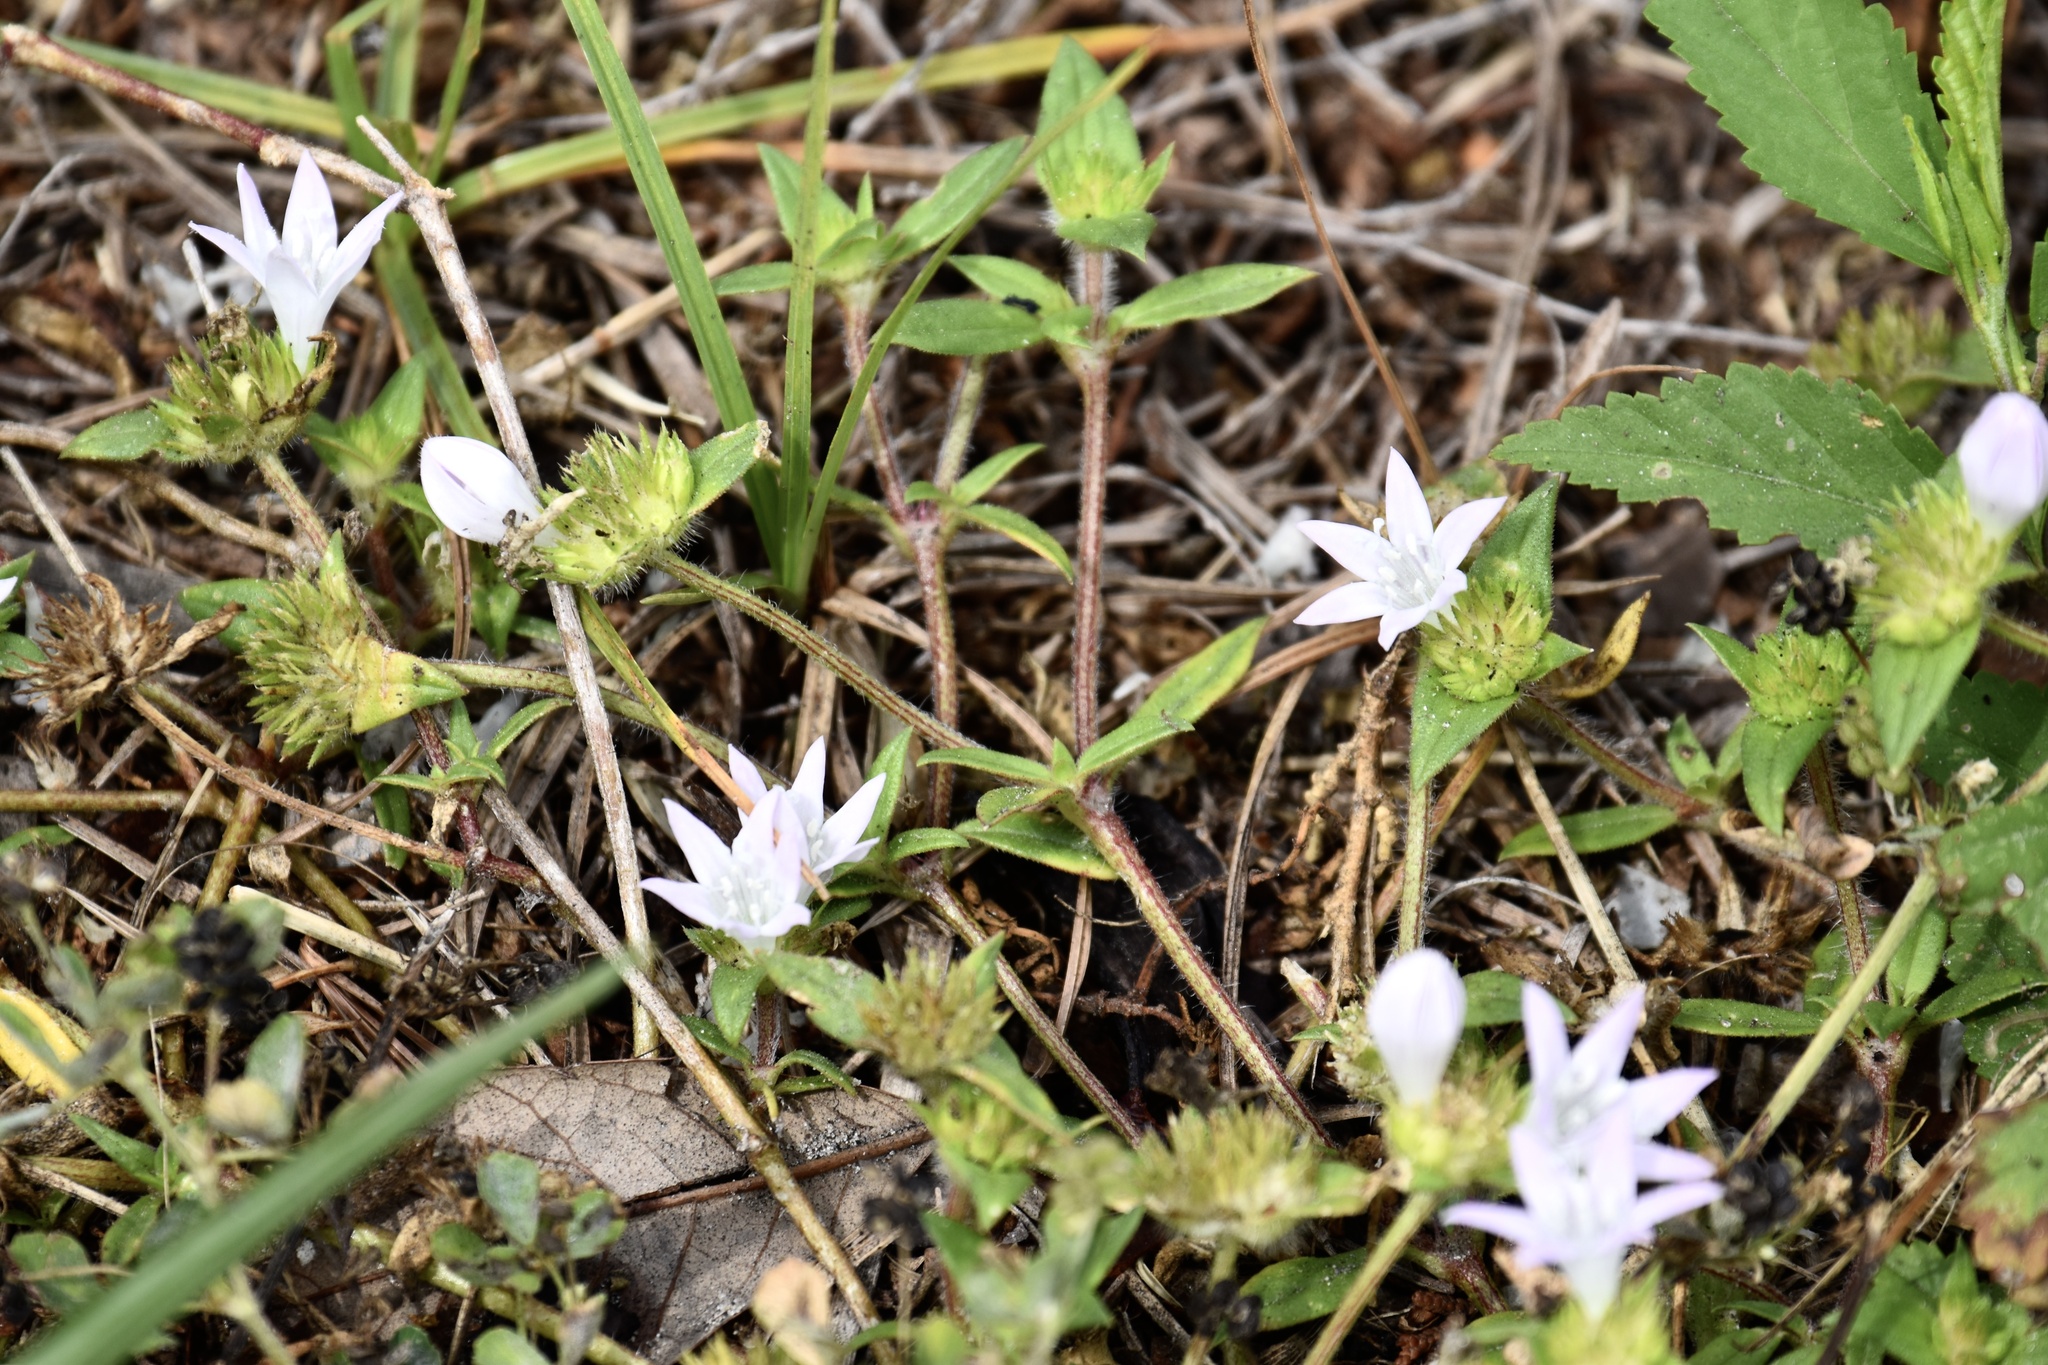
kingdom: Plantae
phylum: Tracheophyta
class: Magnoliopsida
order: Gentianales
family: Rubiaceae
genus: Richardia
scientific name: Richardia grandiflora
